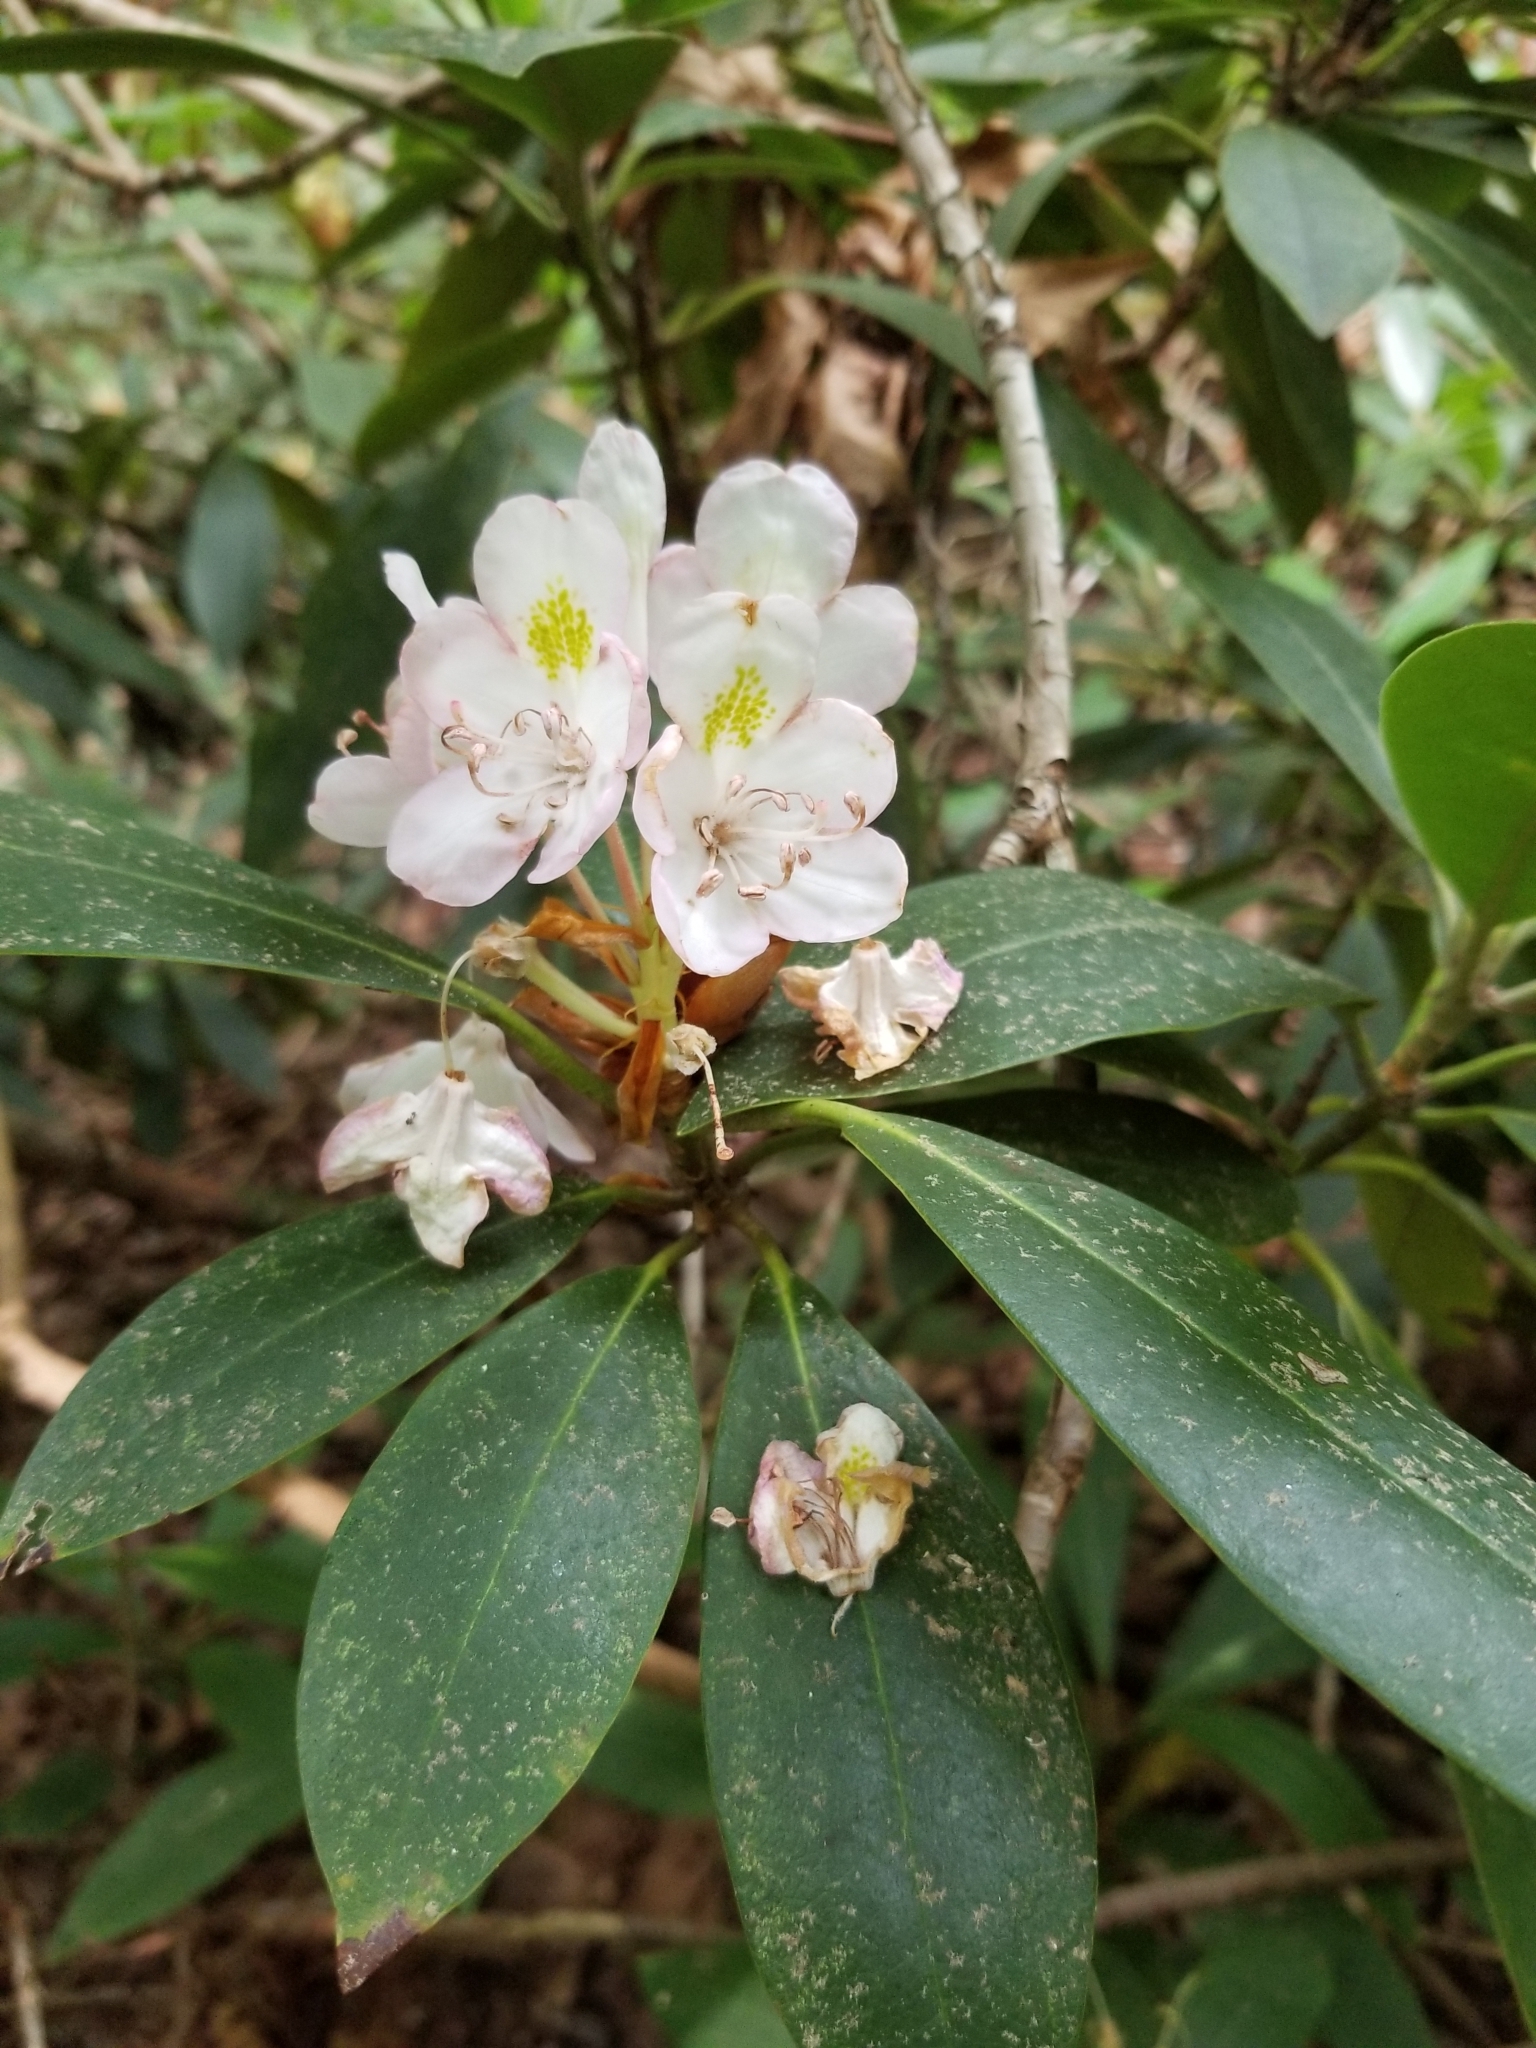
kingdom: Plantae
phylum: Tracheophyta
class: Magnoliopsida
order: Ericales
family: Ericaceae
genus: Rhododendron
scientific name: Rhododendron maximum
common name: Great rhododendron
